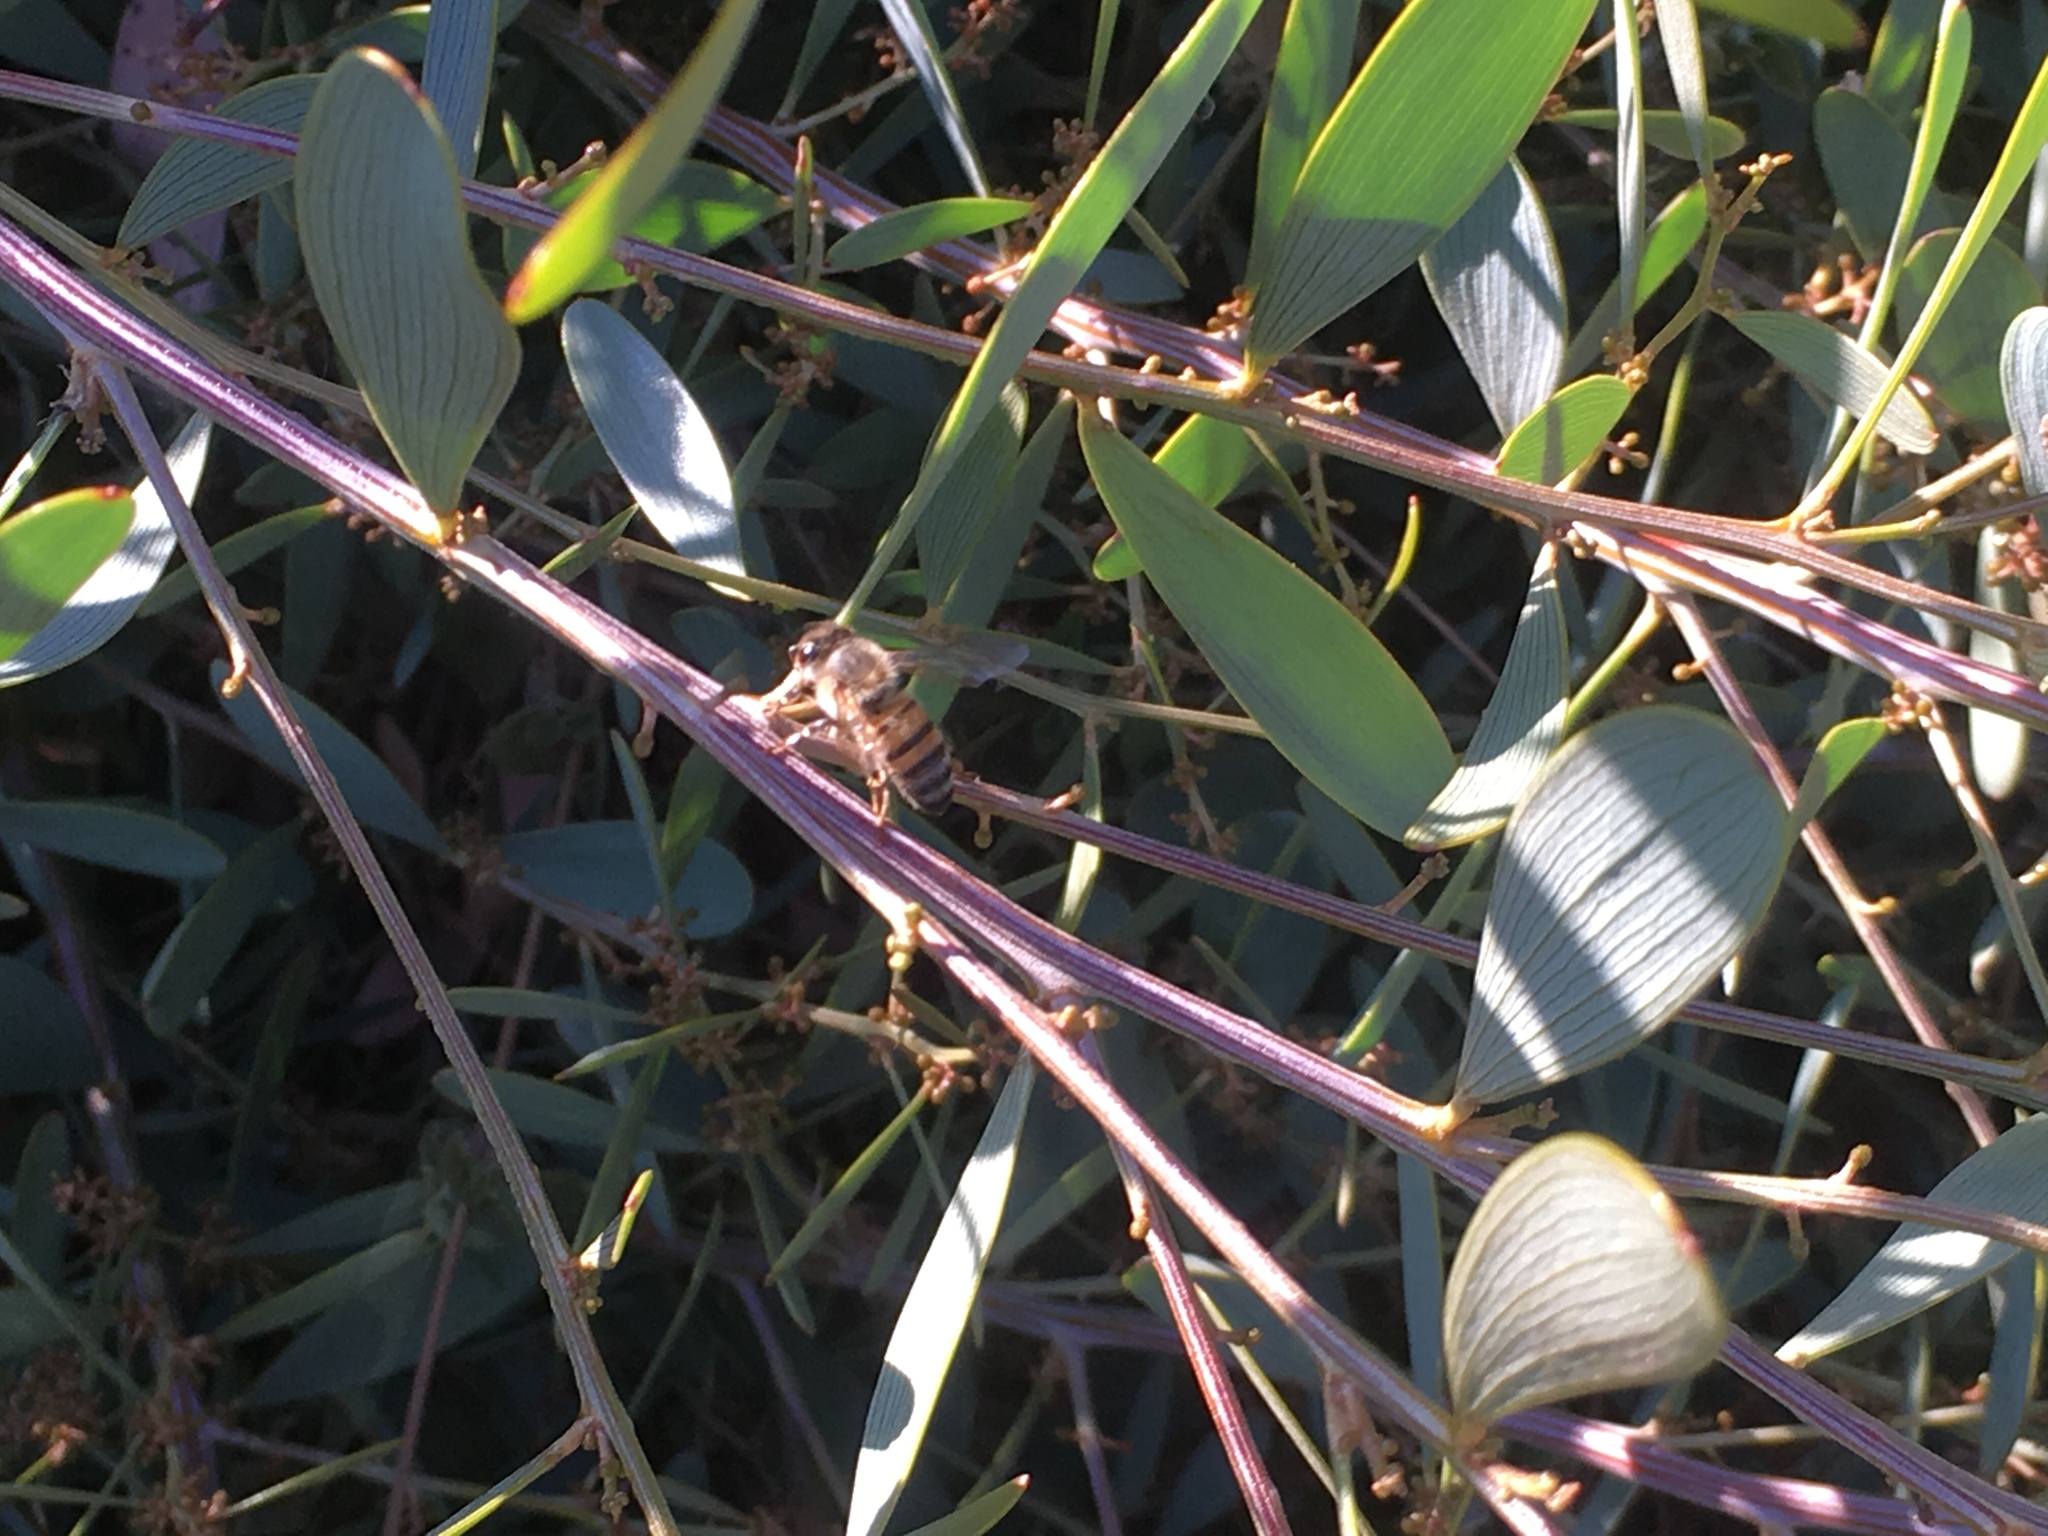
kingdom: Animalia
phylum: Arthropoda
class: Insecta
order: Hymenoptera
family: Apidae
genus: Apis
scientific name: Apis mellifera
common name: Honey bee
